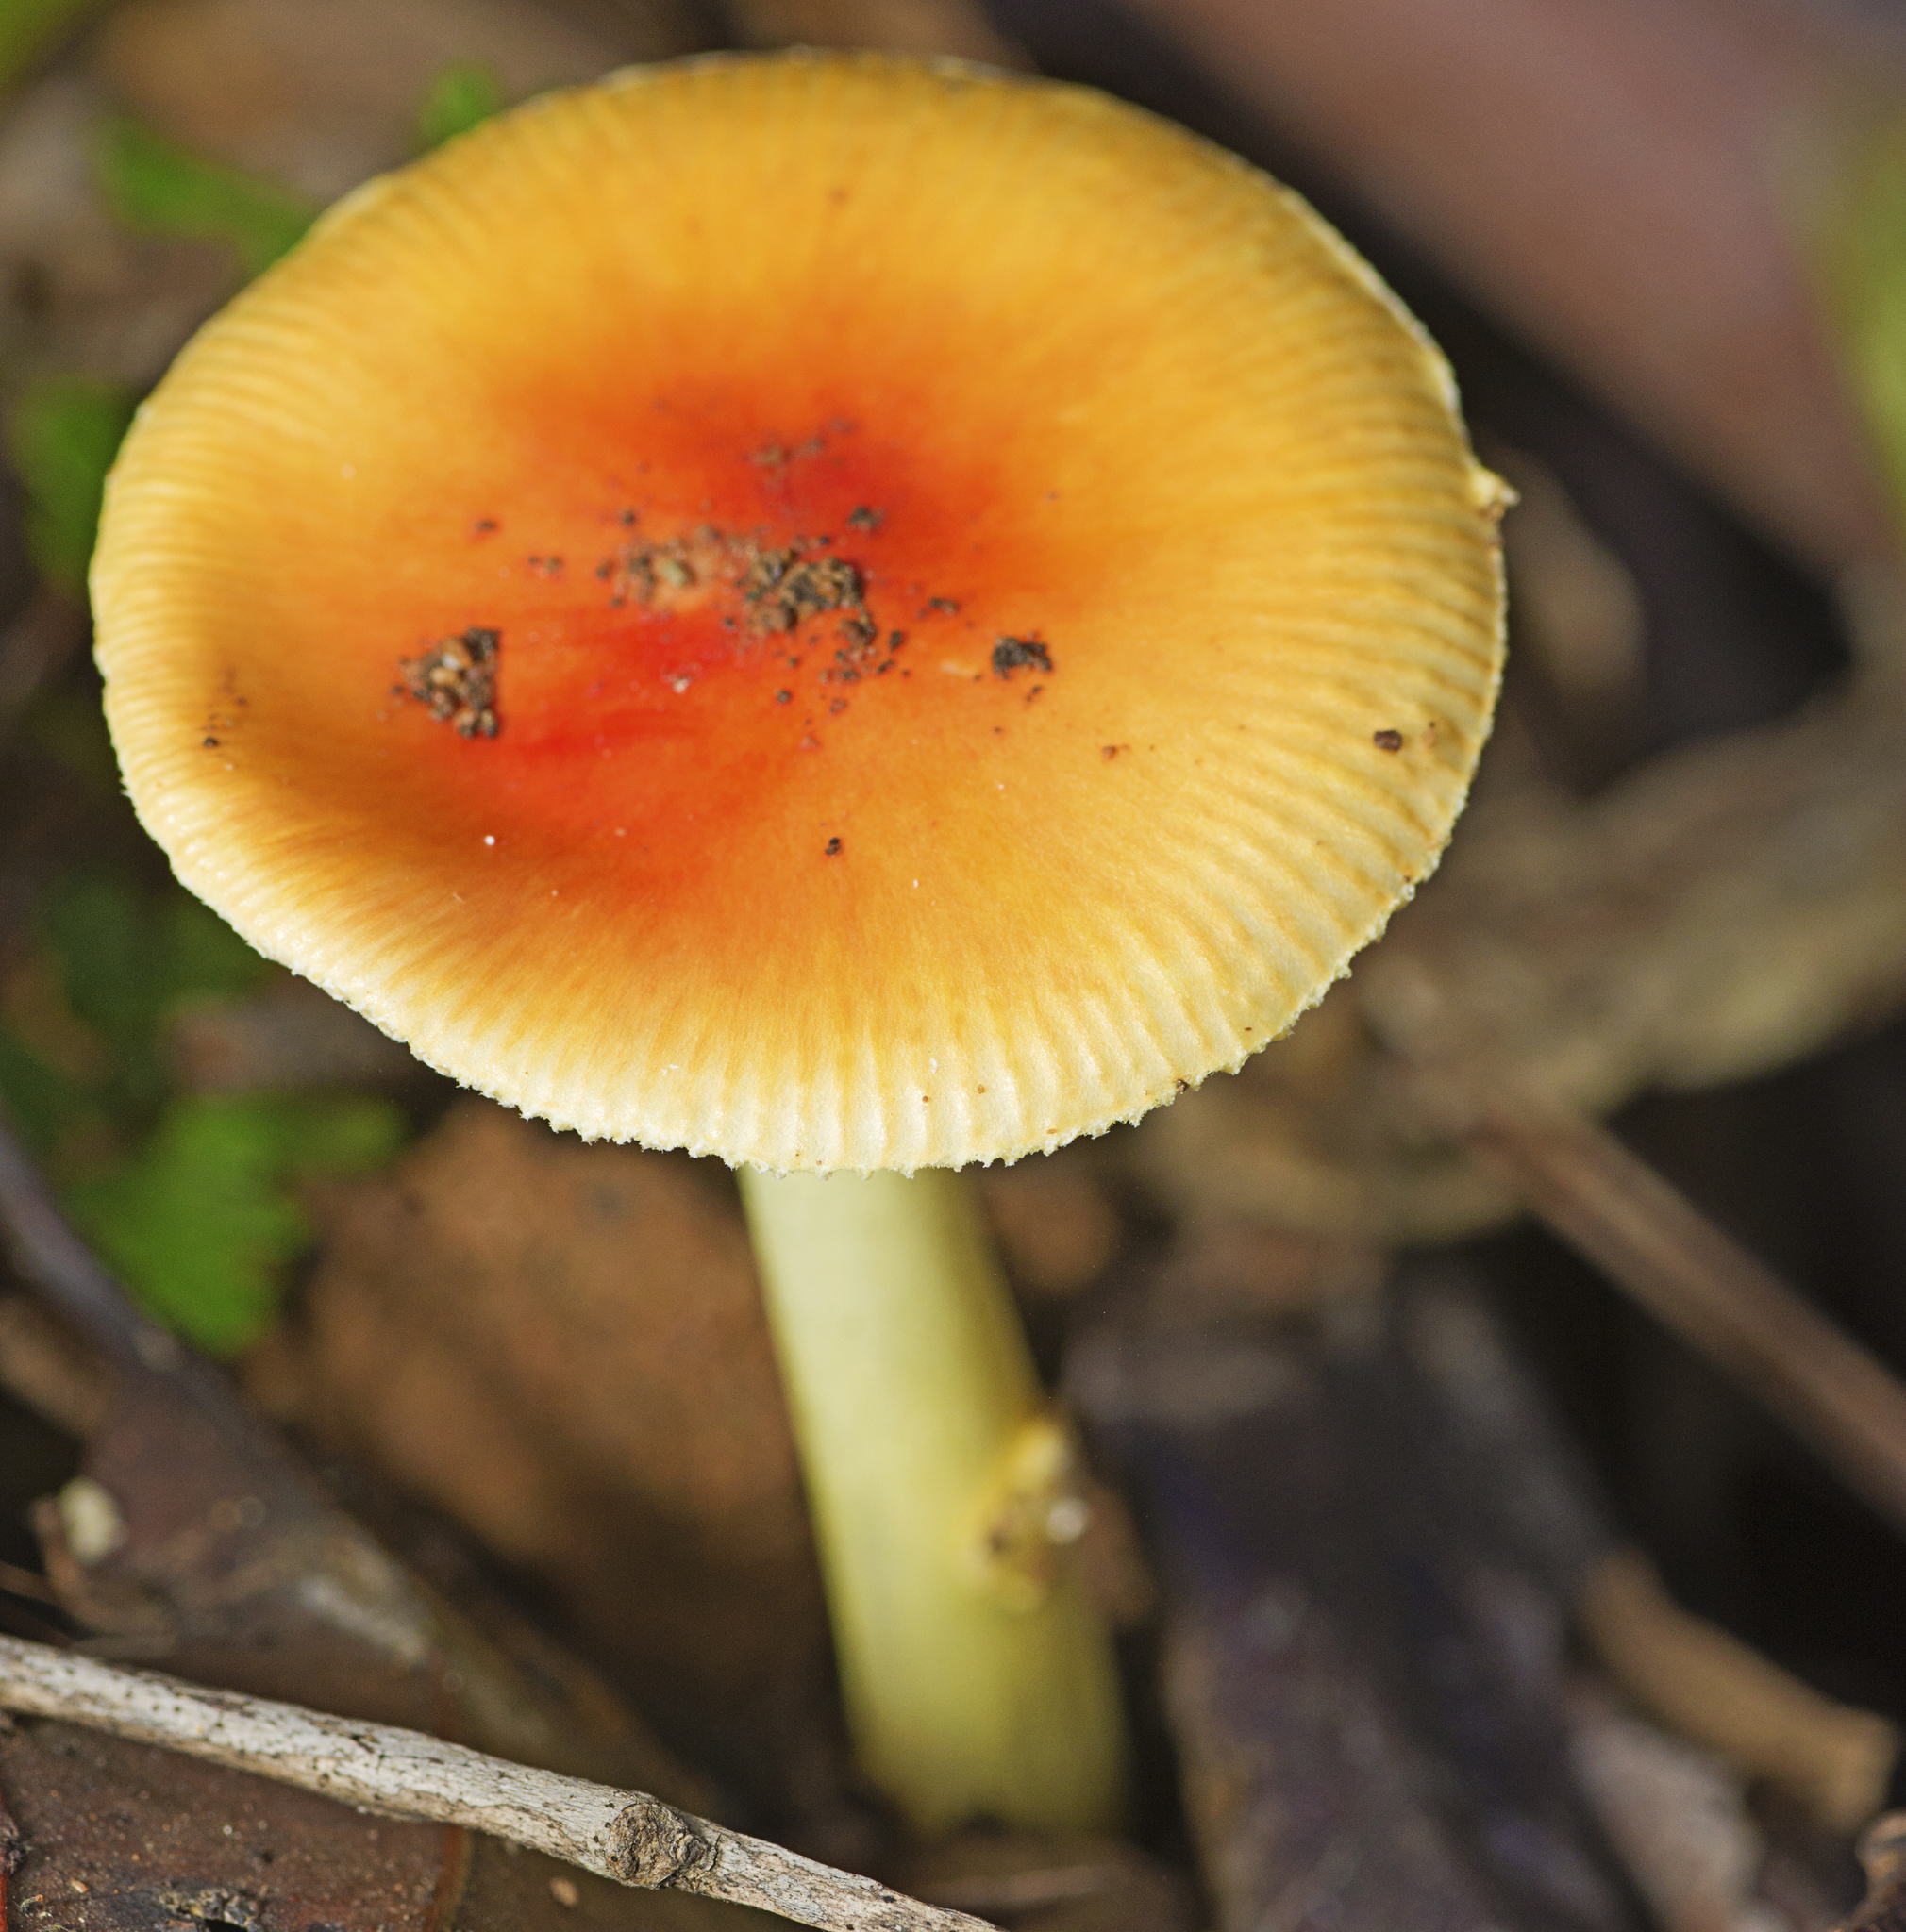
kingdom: Fungi
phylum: Basidiomycota
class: Agaricomycetes
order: Agaricales
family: Amanitaceae
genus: Amanita
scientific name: Amanita xanthocephala
